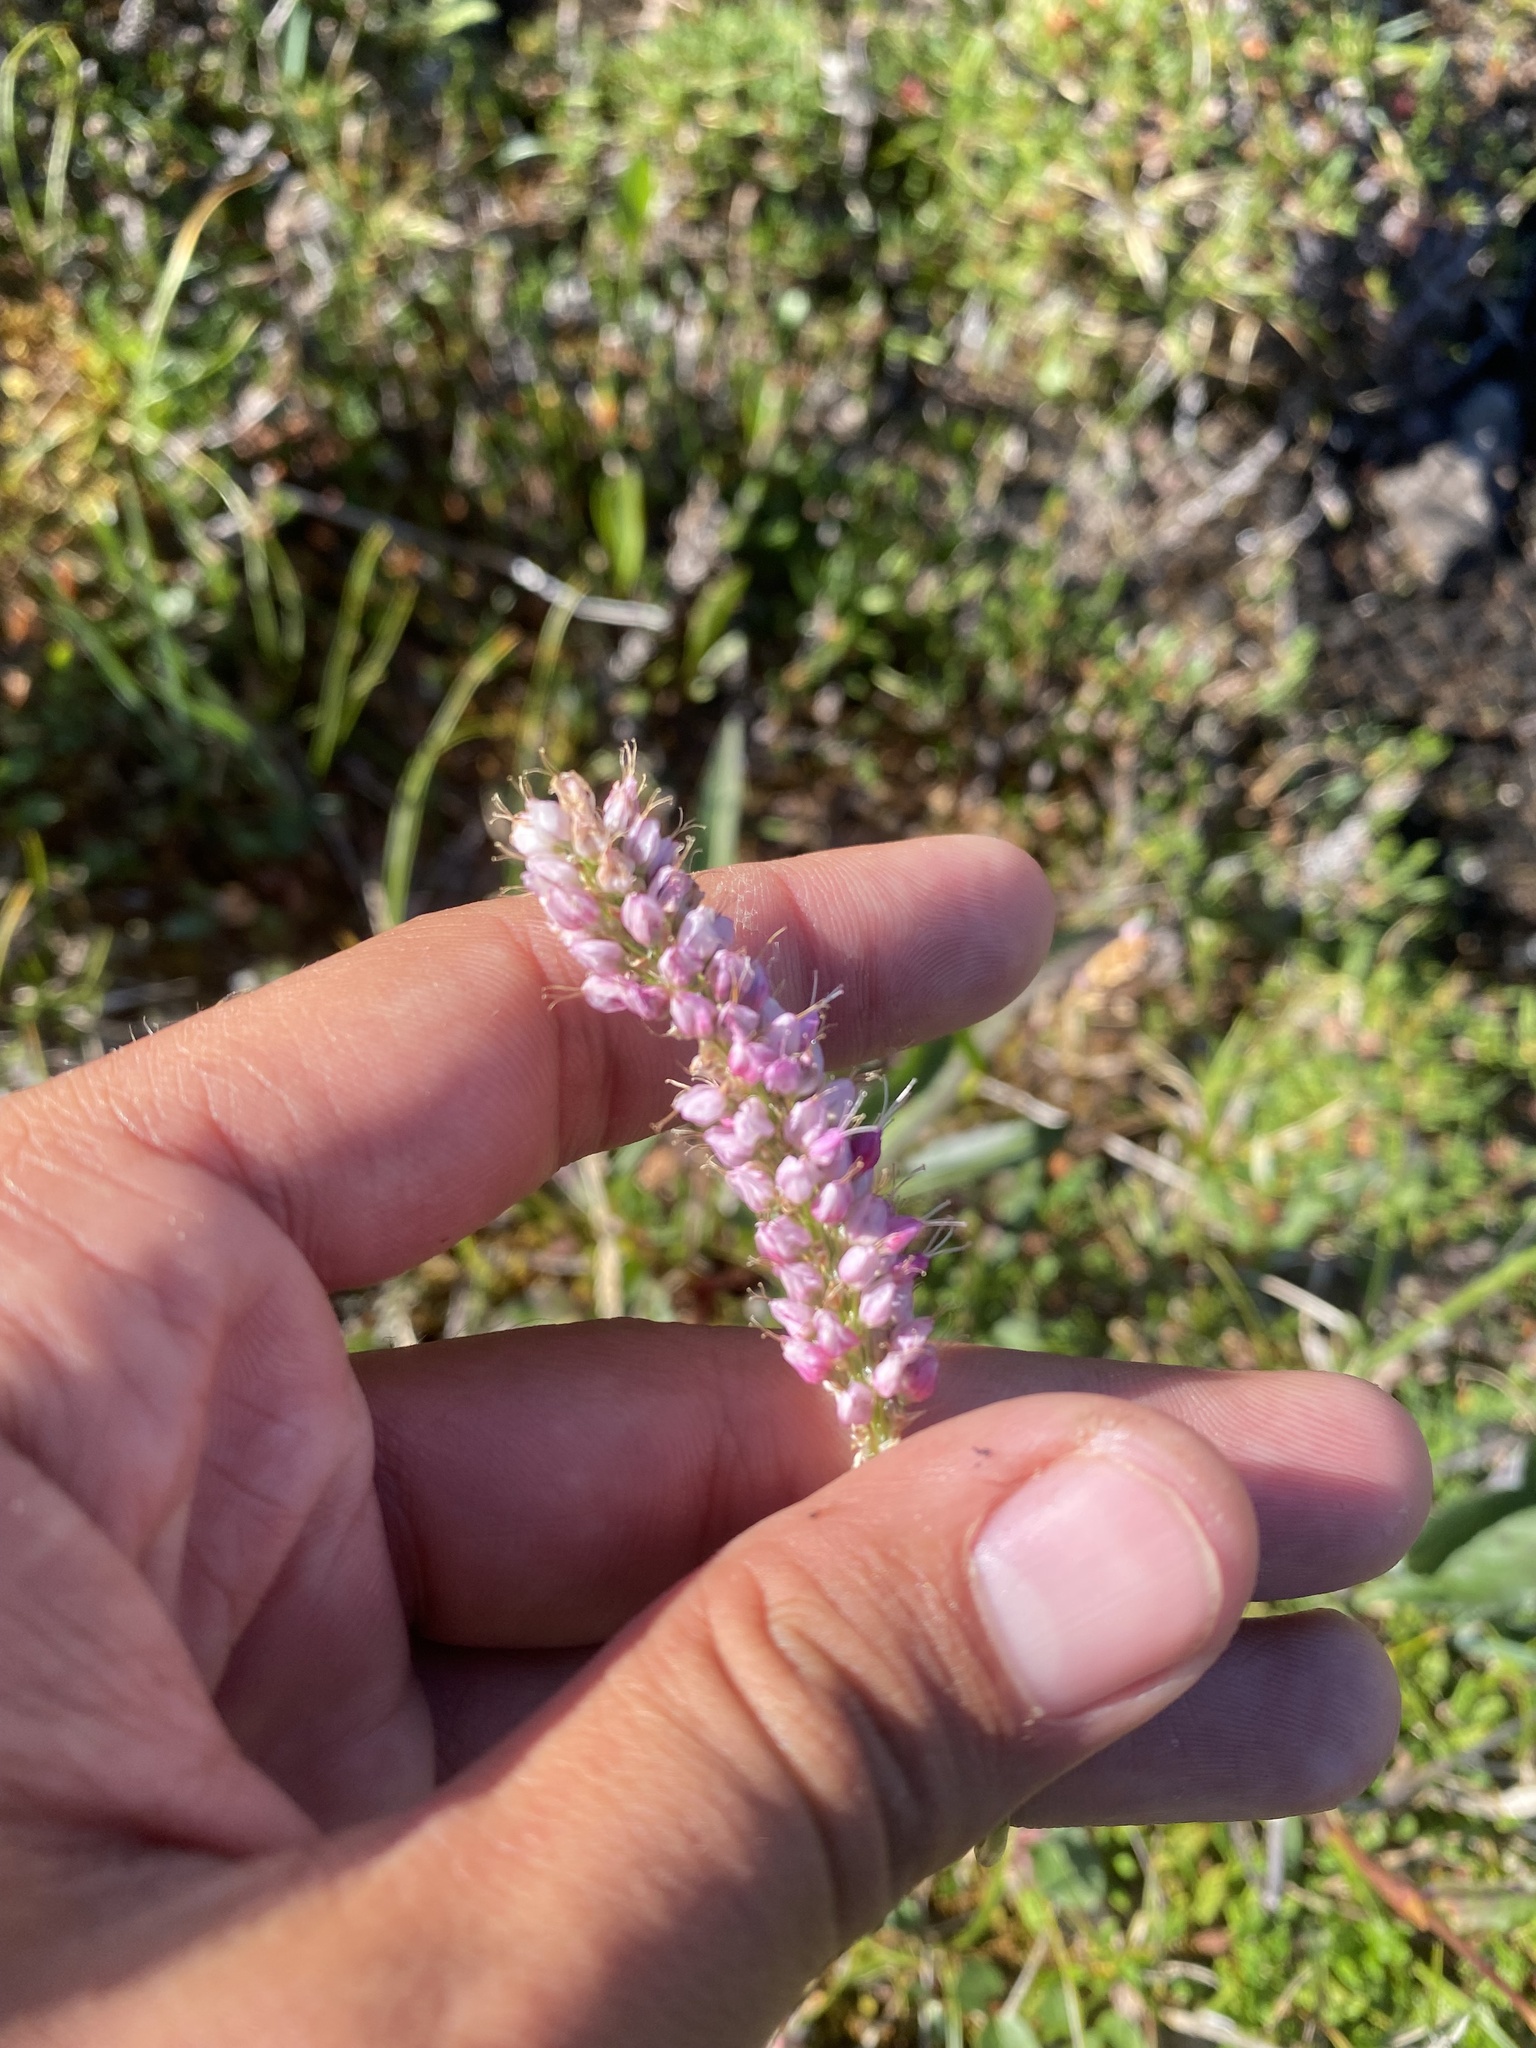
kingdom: Plantae
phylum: Tracheophyta
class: Magnoliopsida
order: Caryophyllales
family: Polygonaceae
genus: Bistorta
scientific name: Bistorta plumosa
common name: Meadow bistort
